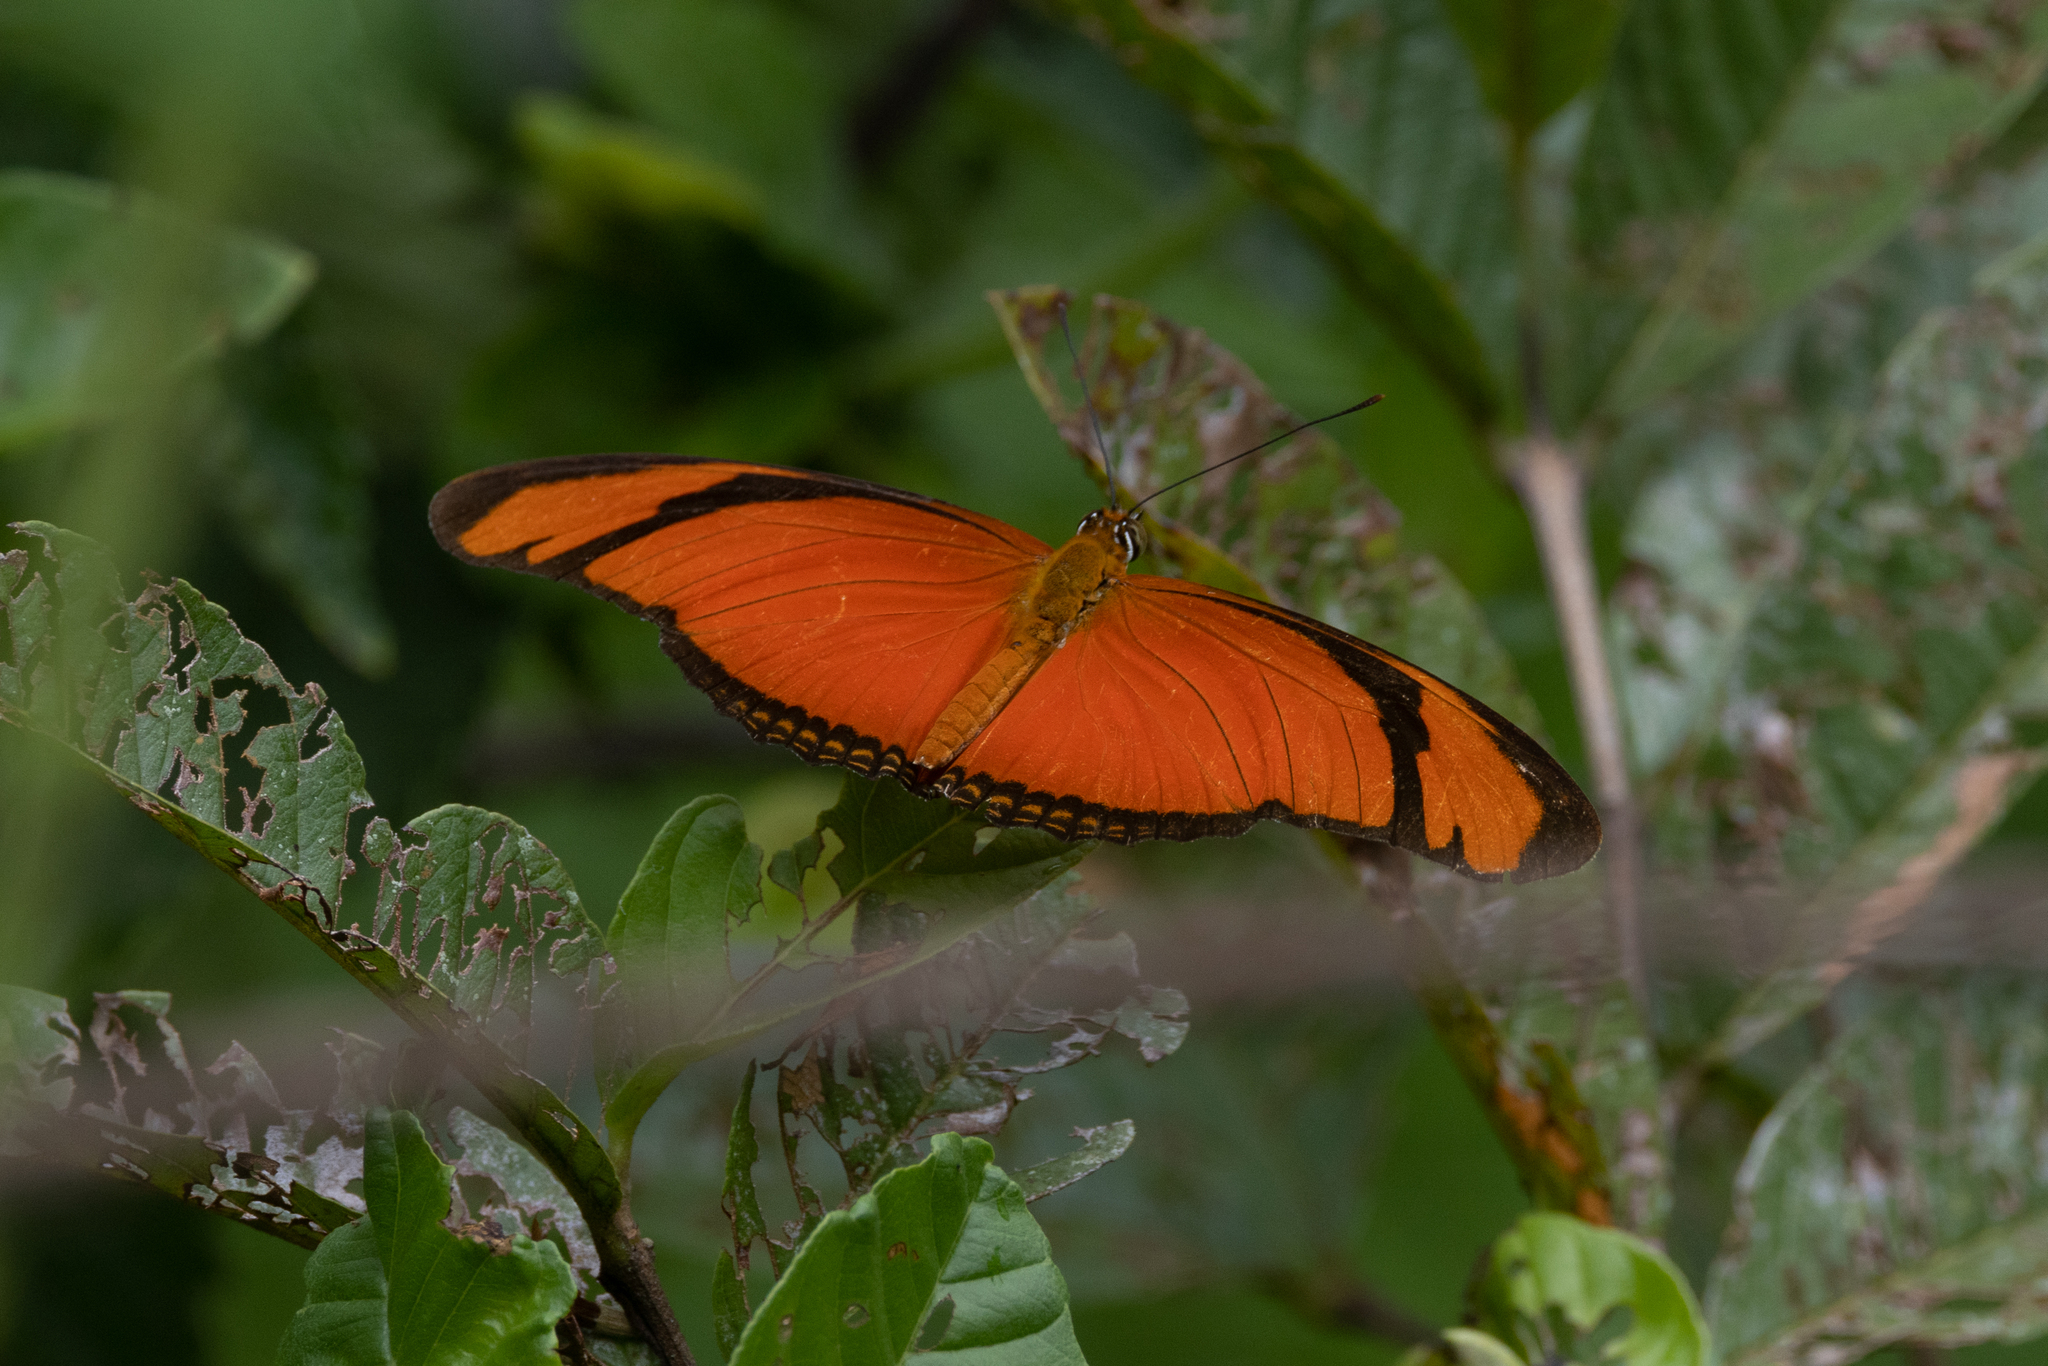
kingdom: Animalia
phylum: Arthropoda
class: Insecta
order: Lepidoptera
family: Nymphalidae
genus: Dryas
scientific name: Dryas iulia
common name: Flambeau
